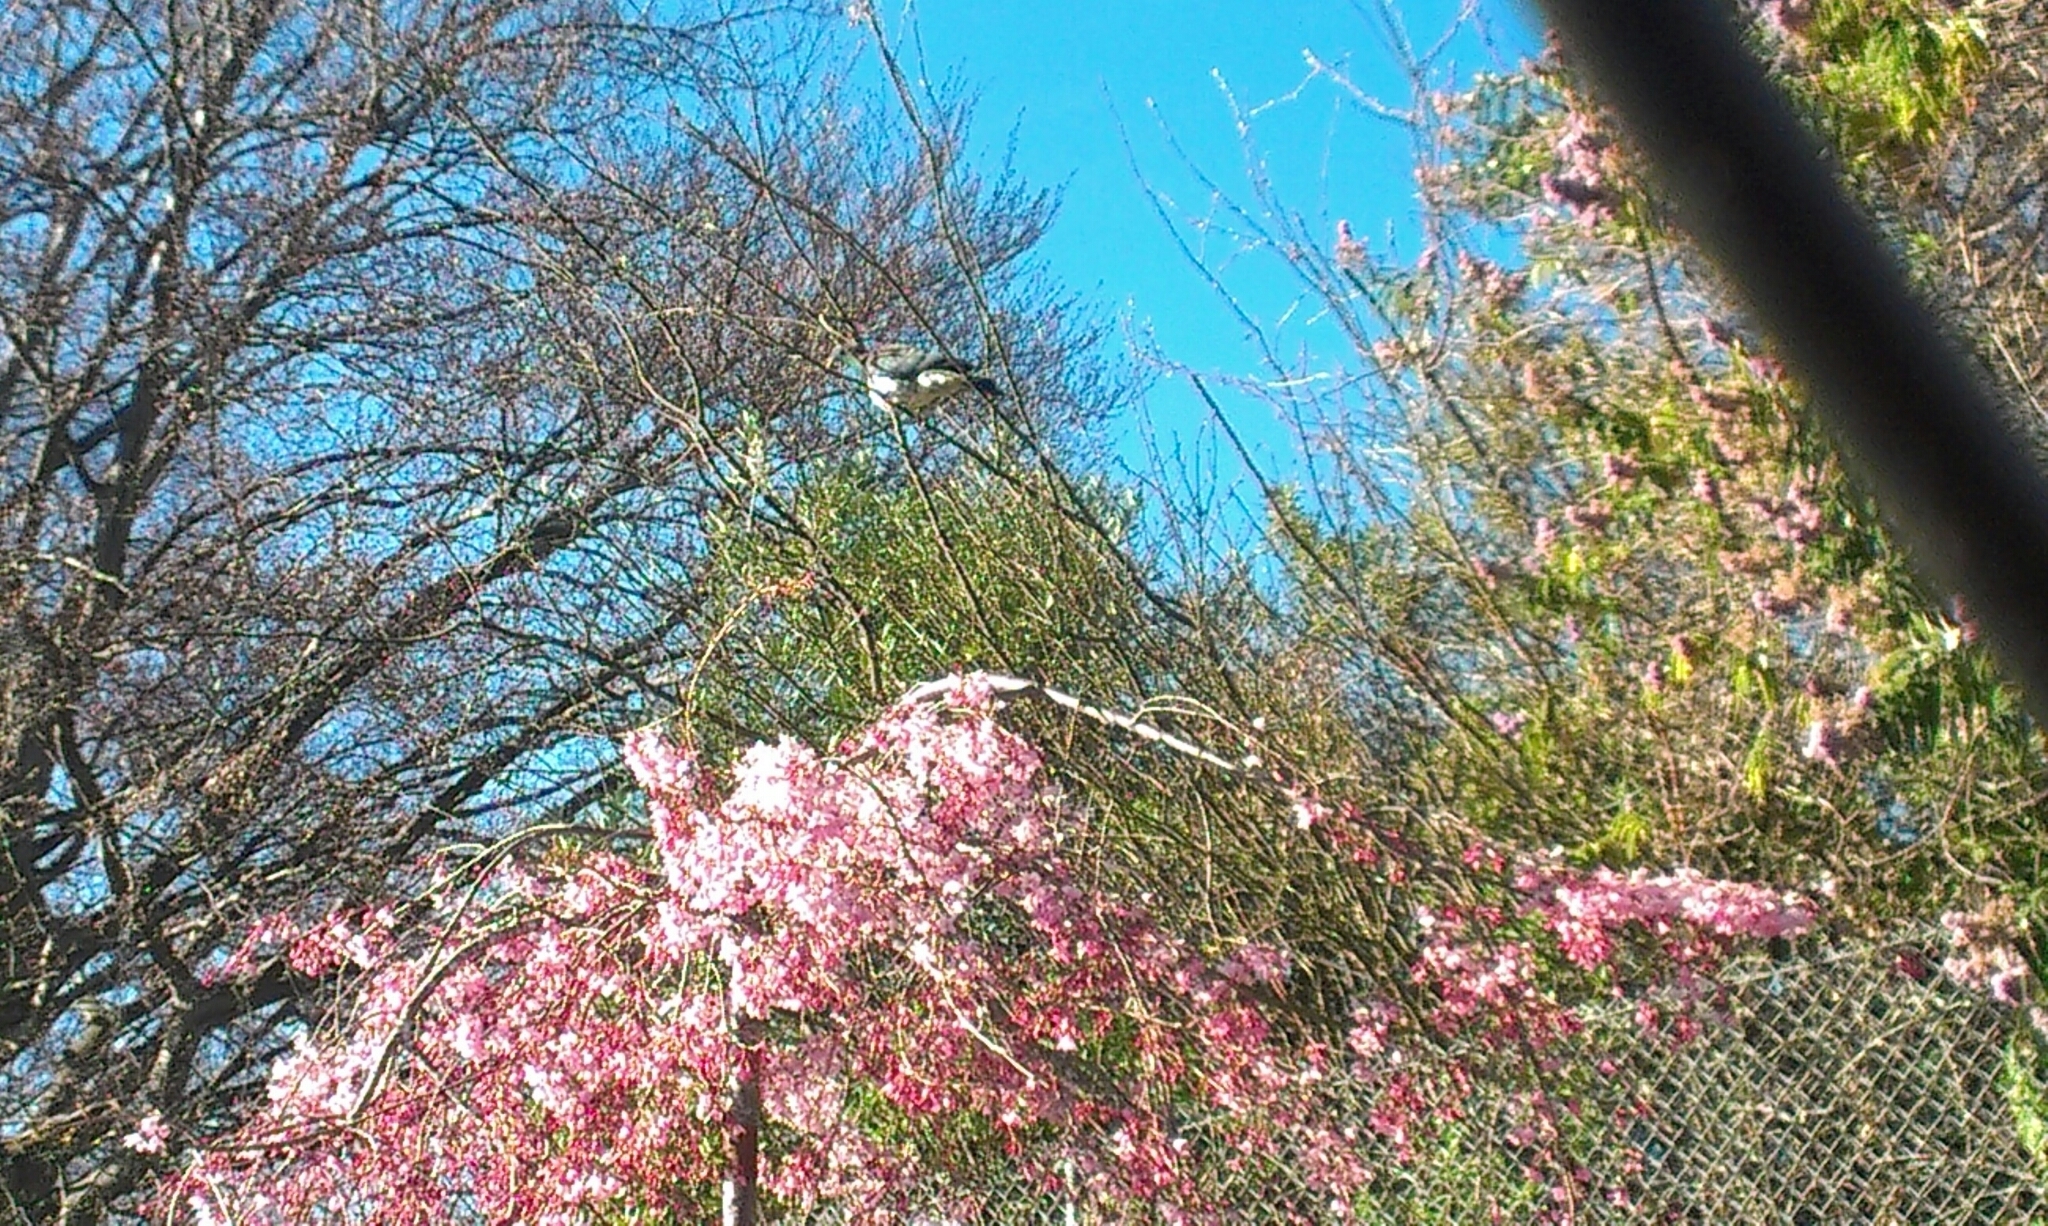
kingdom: Animalia
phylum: Chordata
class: Aves
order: Columbiformes
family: Columbidae
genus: Hemiphaga
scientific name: Hemiphaga novaeseelandiae
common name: New zealand pigeon
